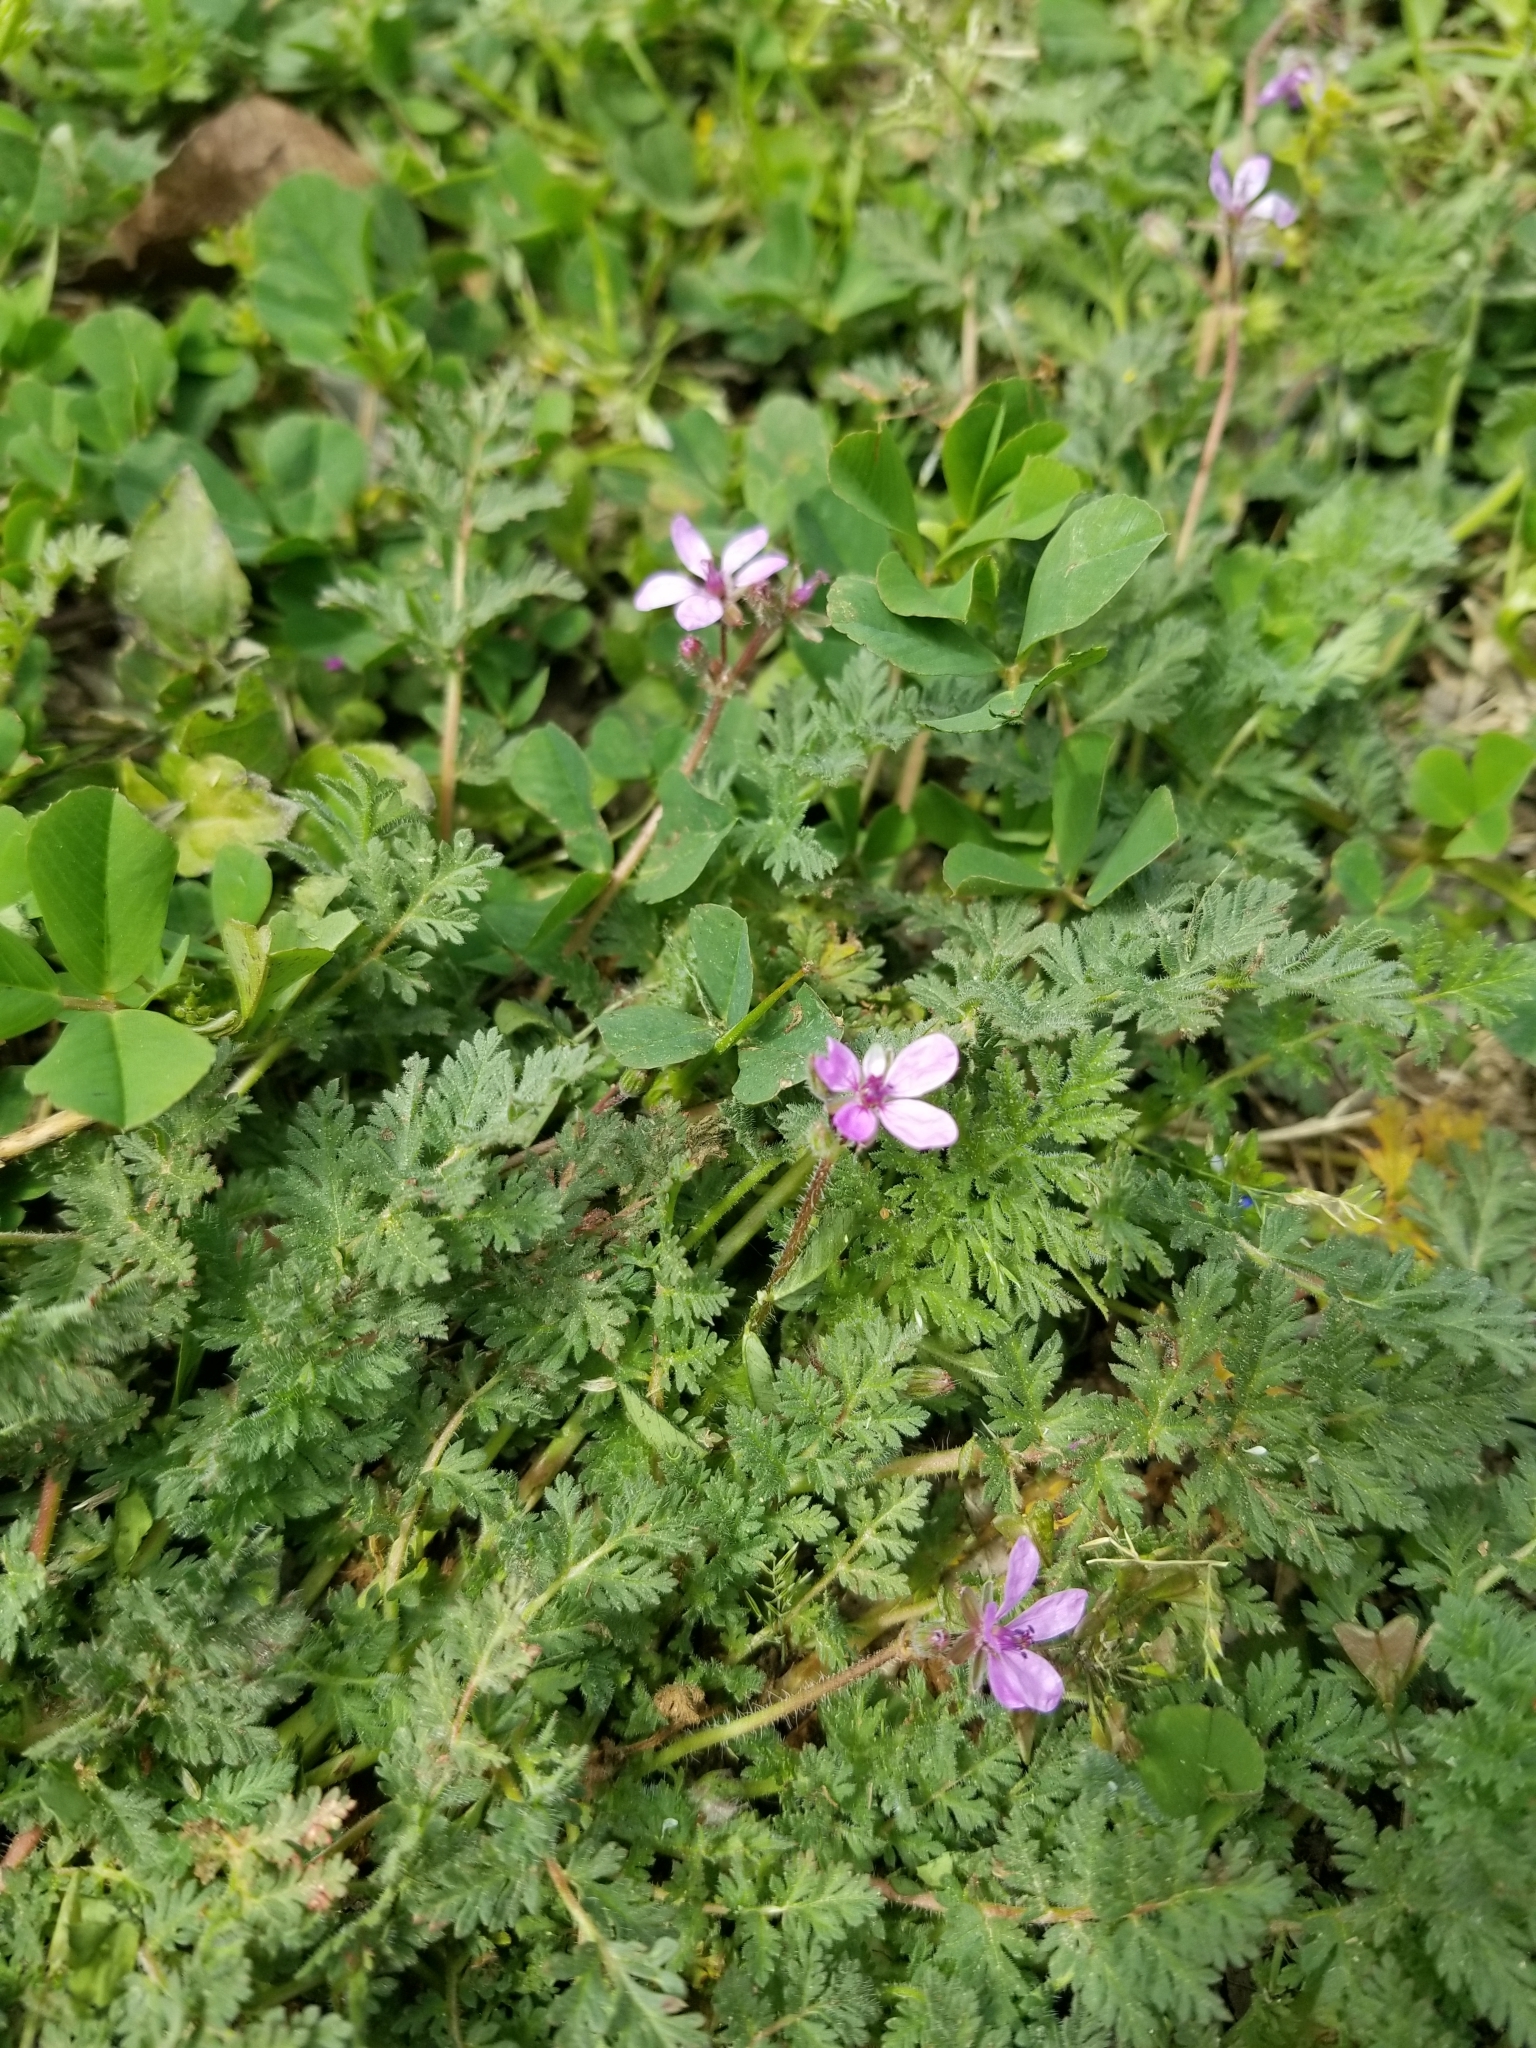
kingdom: Plantae
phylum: Tracheophyta
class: Magnoliopsida
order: Geraniales
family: Geraniaceae
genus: Erodium
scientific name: Erodium cicutarium
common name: Common stork's-bill
